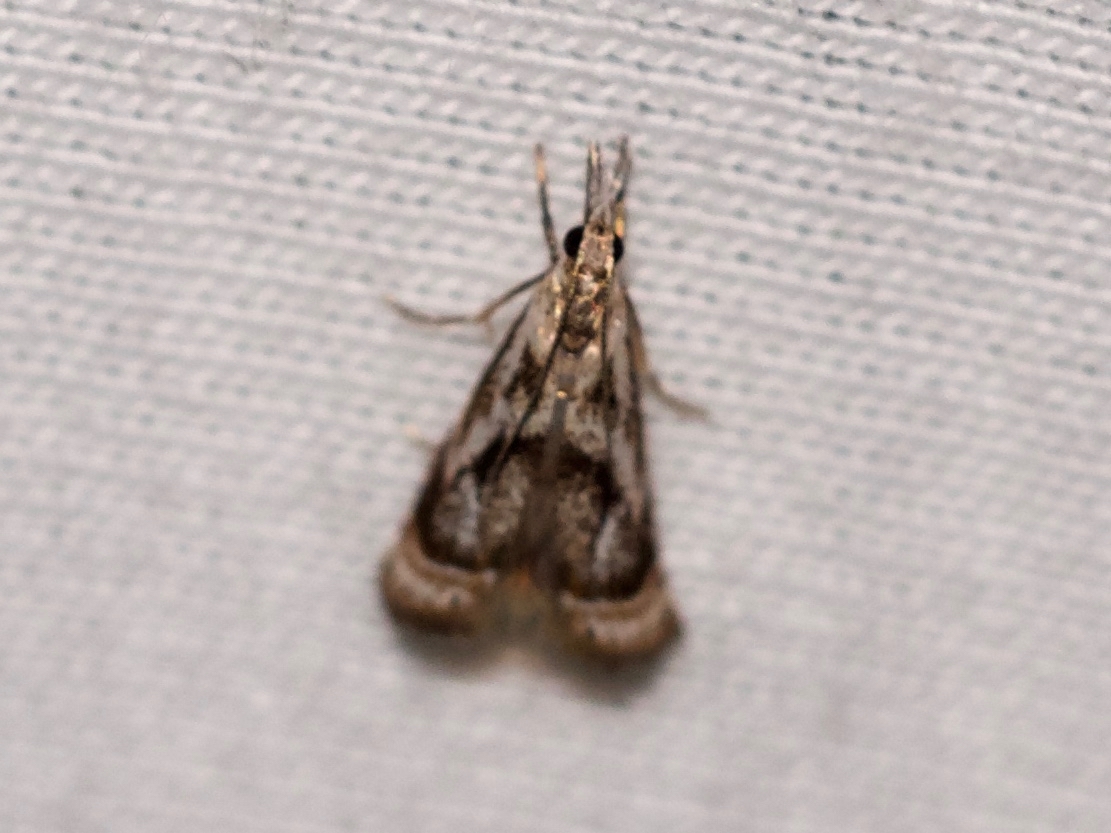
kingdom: Animalia
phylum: Arthropoda
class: Insecta
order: Lepidoptera
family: Crambidae
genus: Microcrambus
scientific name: Microcrambus elegans
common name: Elegant grass-veneer
